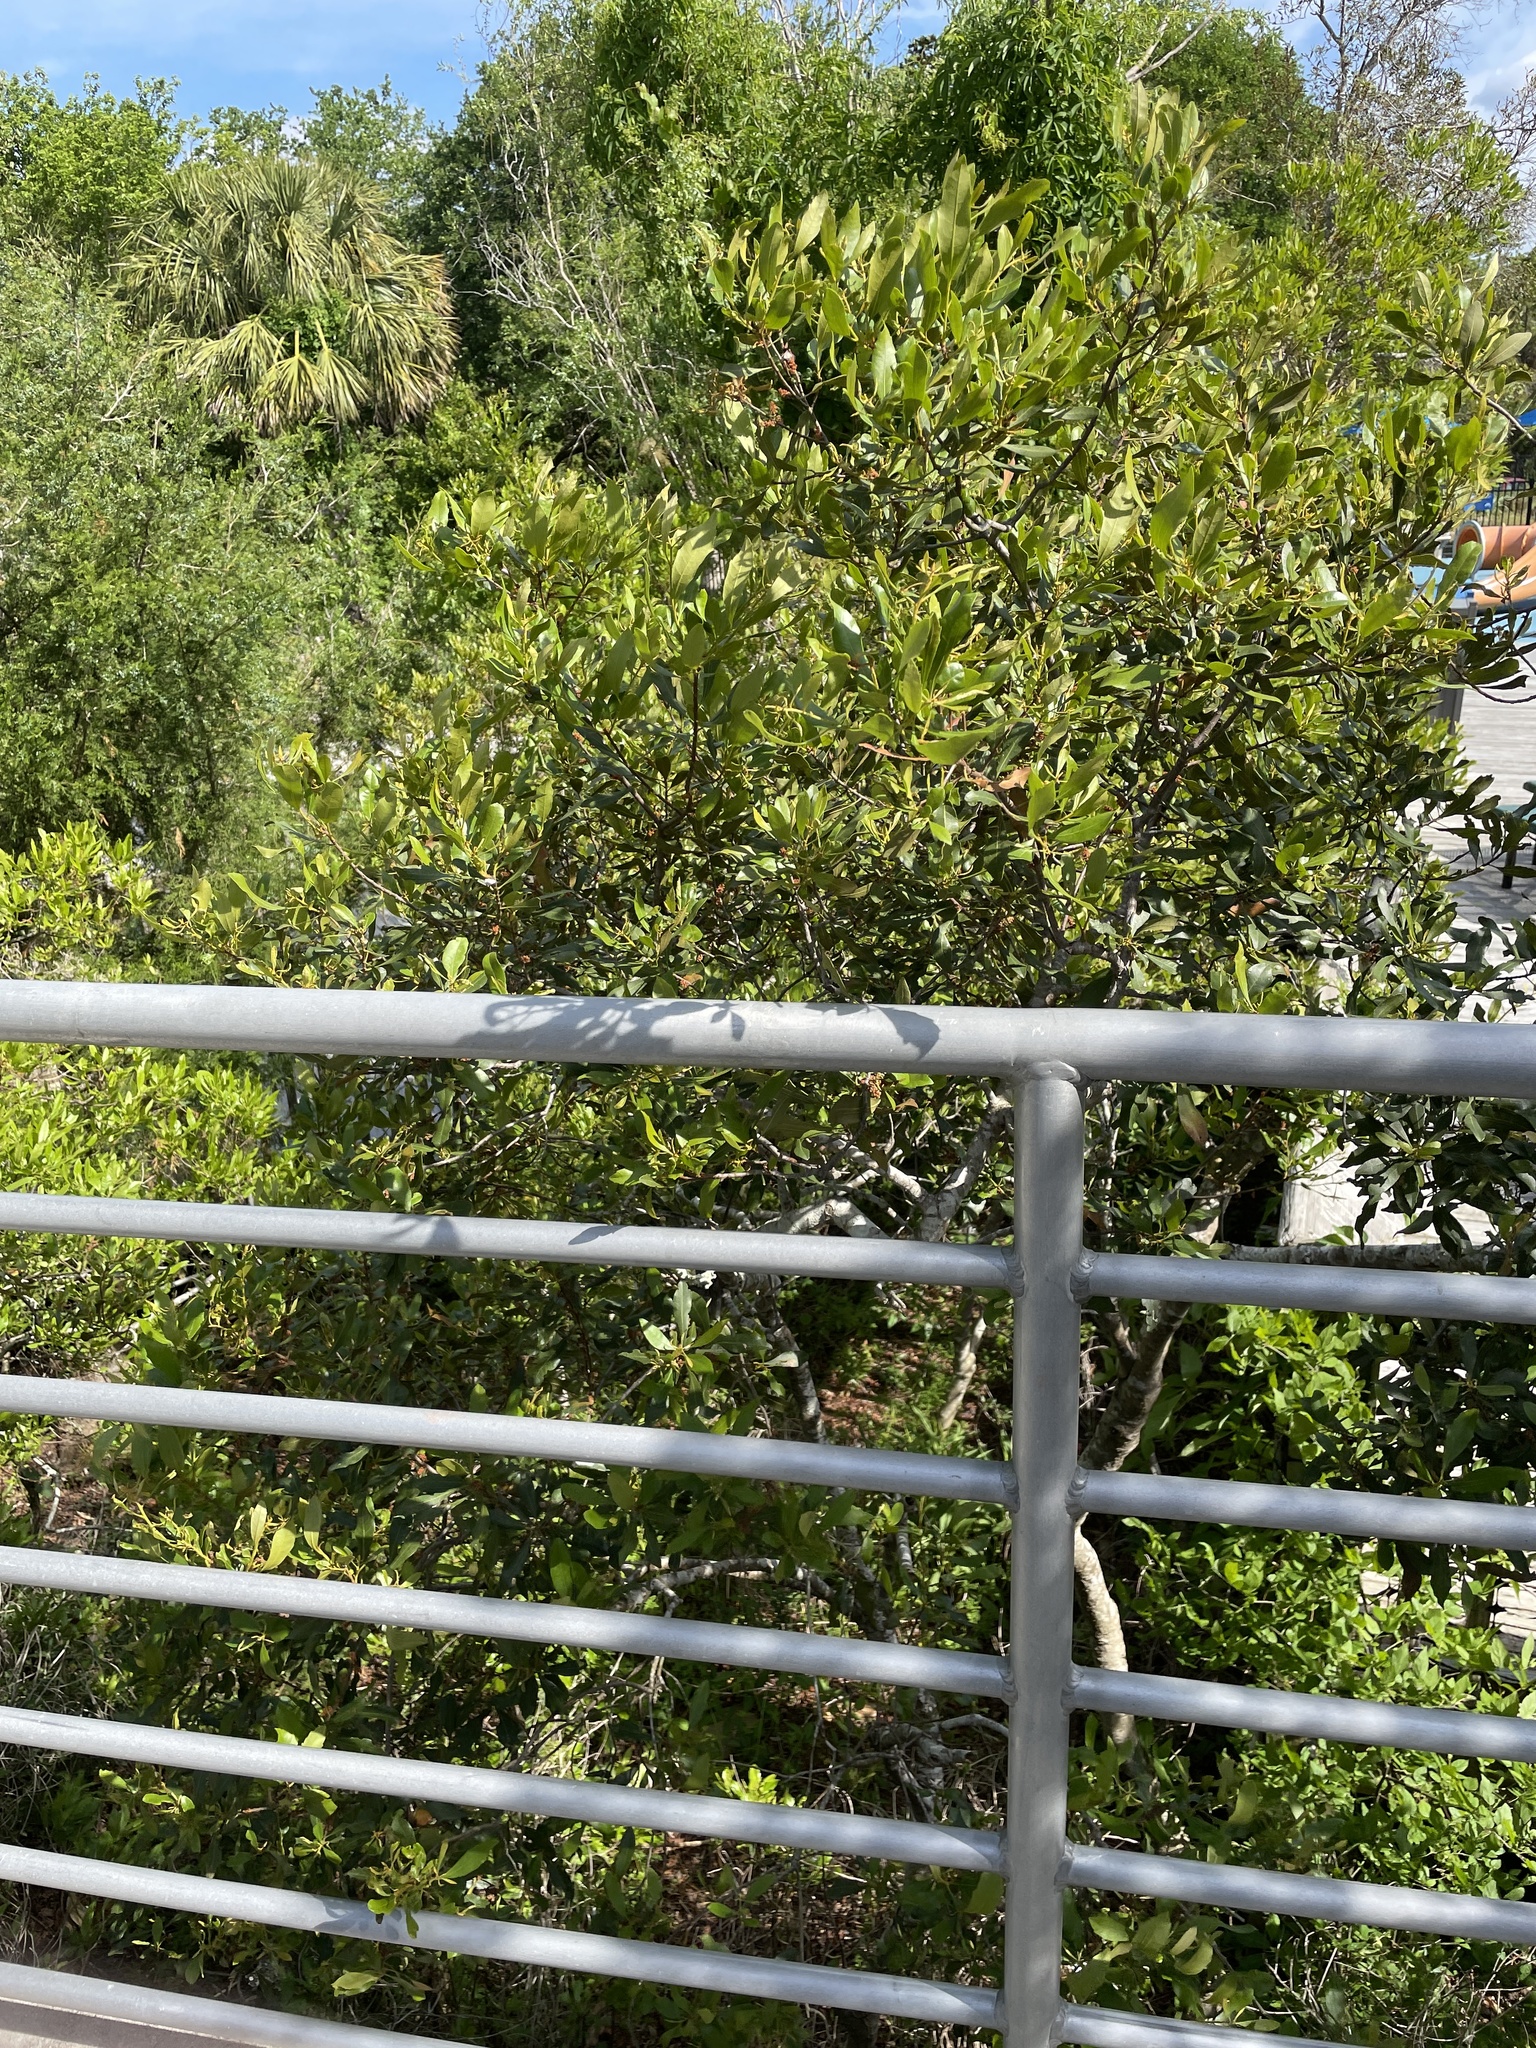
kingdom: Plantae
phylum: Tracheophyta
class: Magnoliopsida
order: Fagales
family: Myricaceae
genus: Morella
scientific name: Morella cerifera
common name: Wax myrtle
